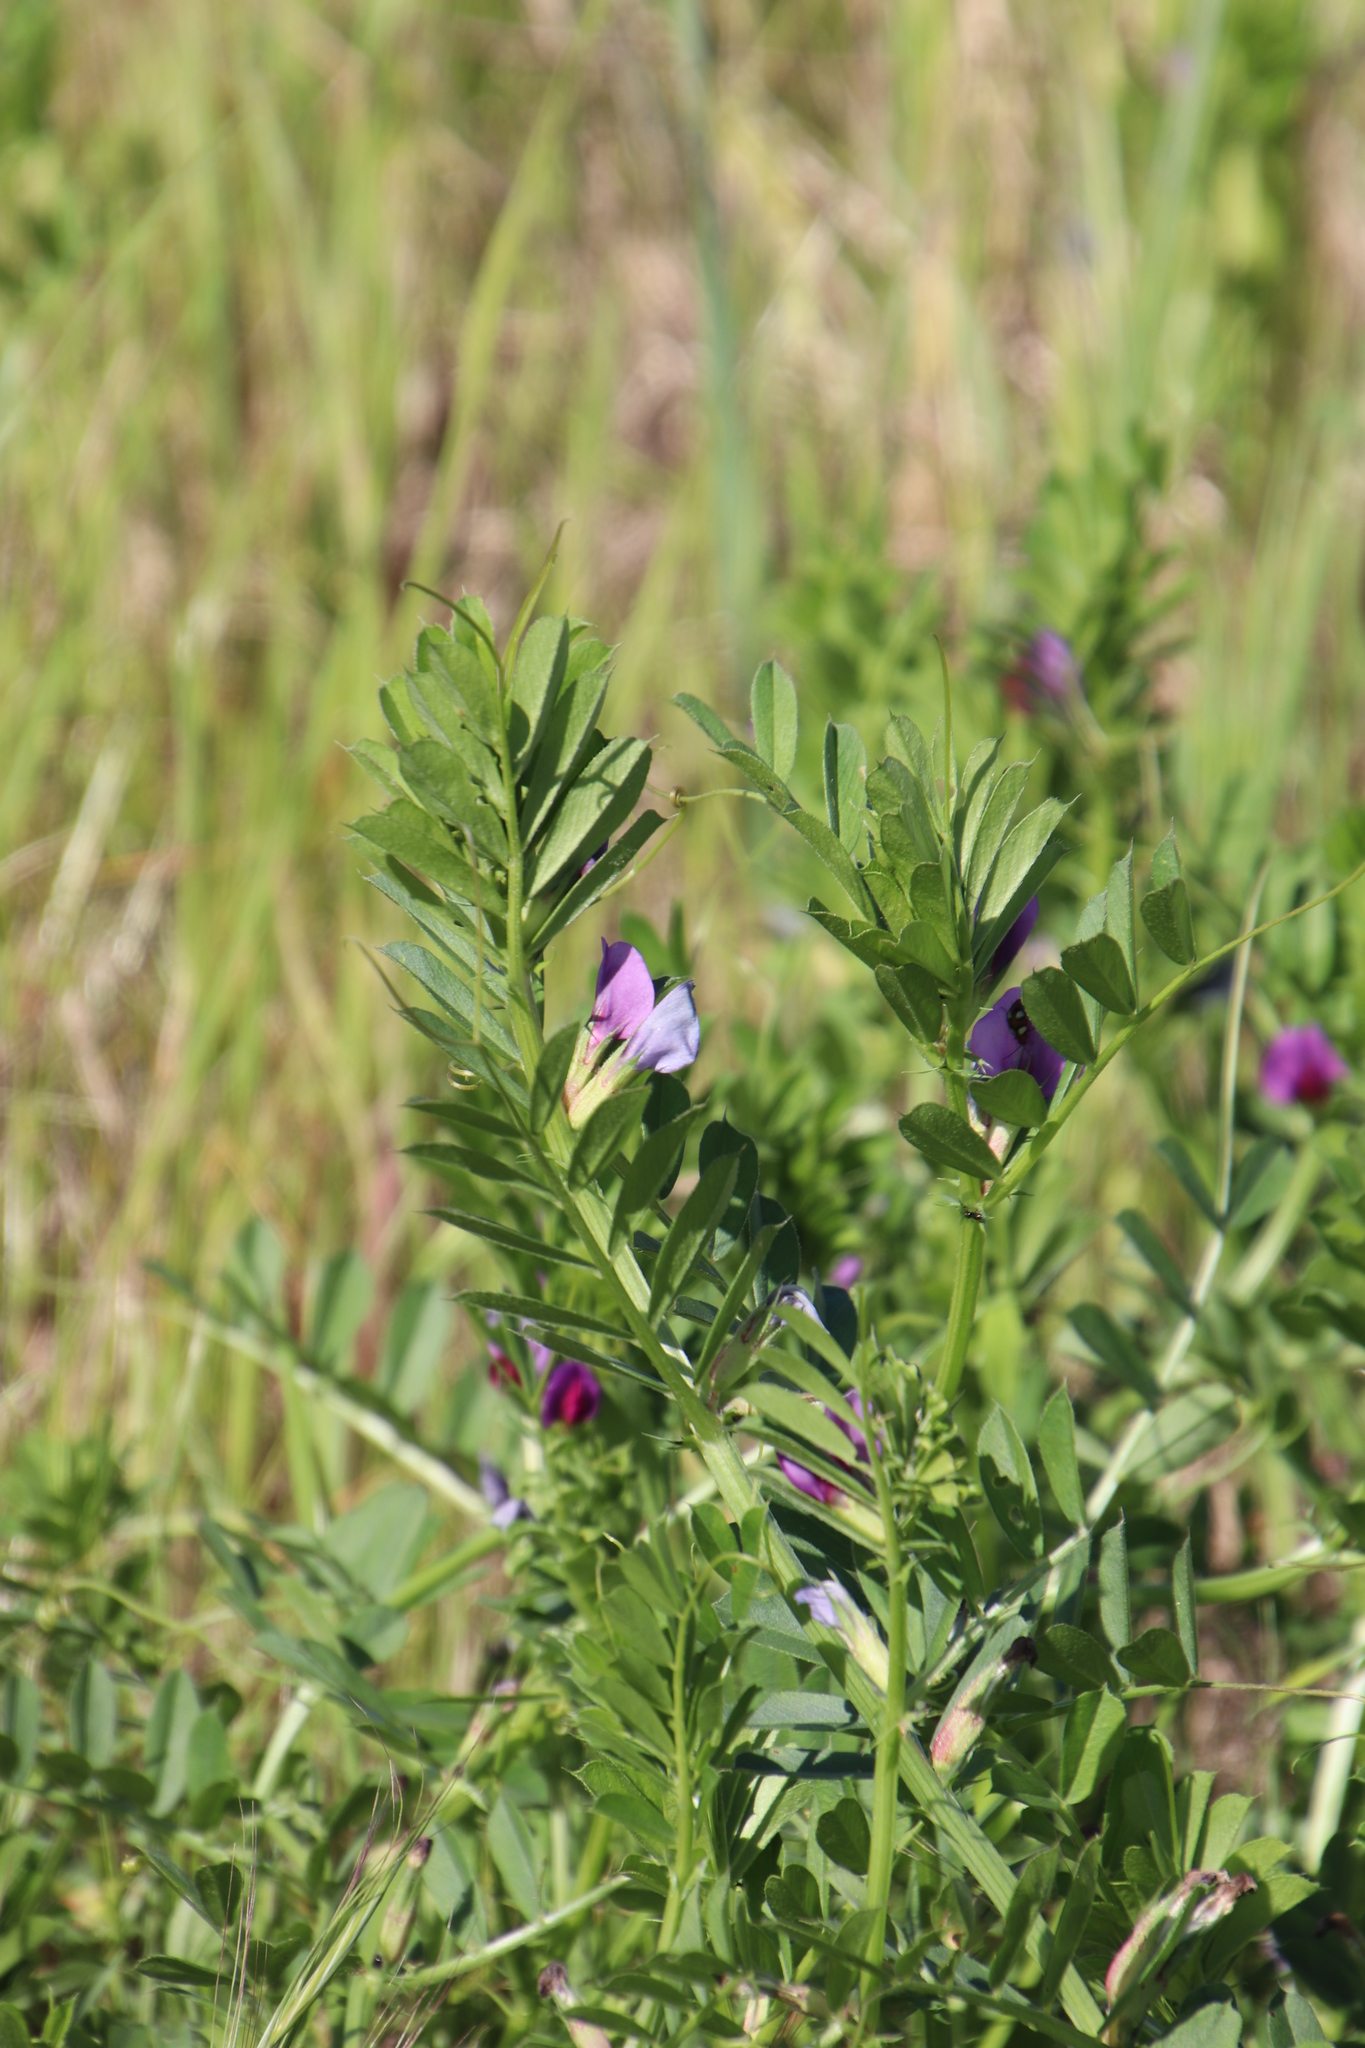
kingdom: Plantae
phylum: Tracheophyta
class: Magnoliopsida
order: Fabales
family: Fabaceae
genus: Vicia
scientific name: Vicia sativa
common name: Garden vetch
